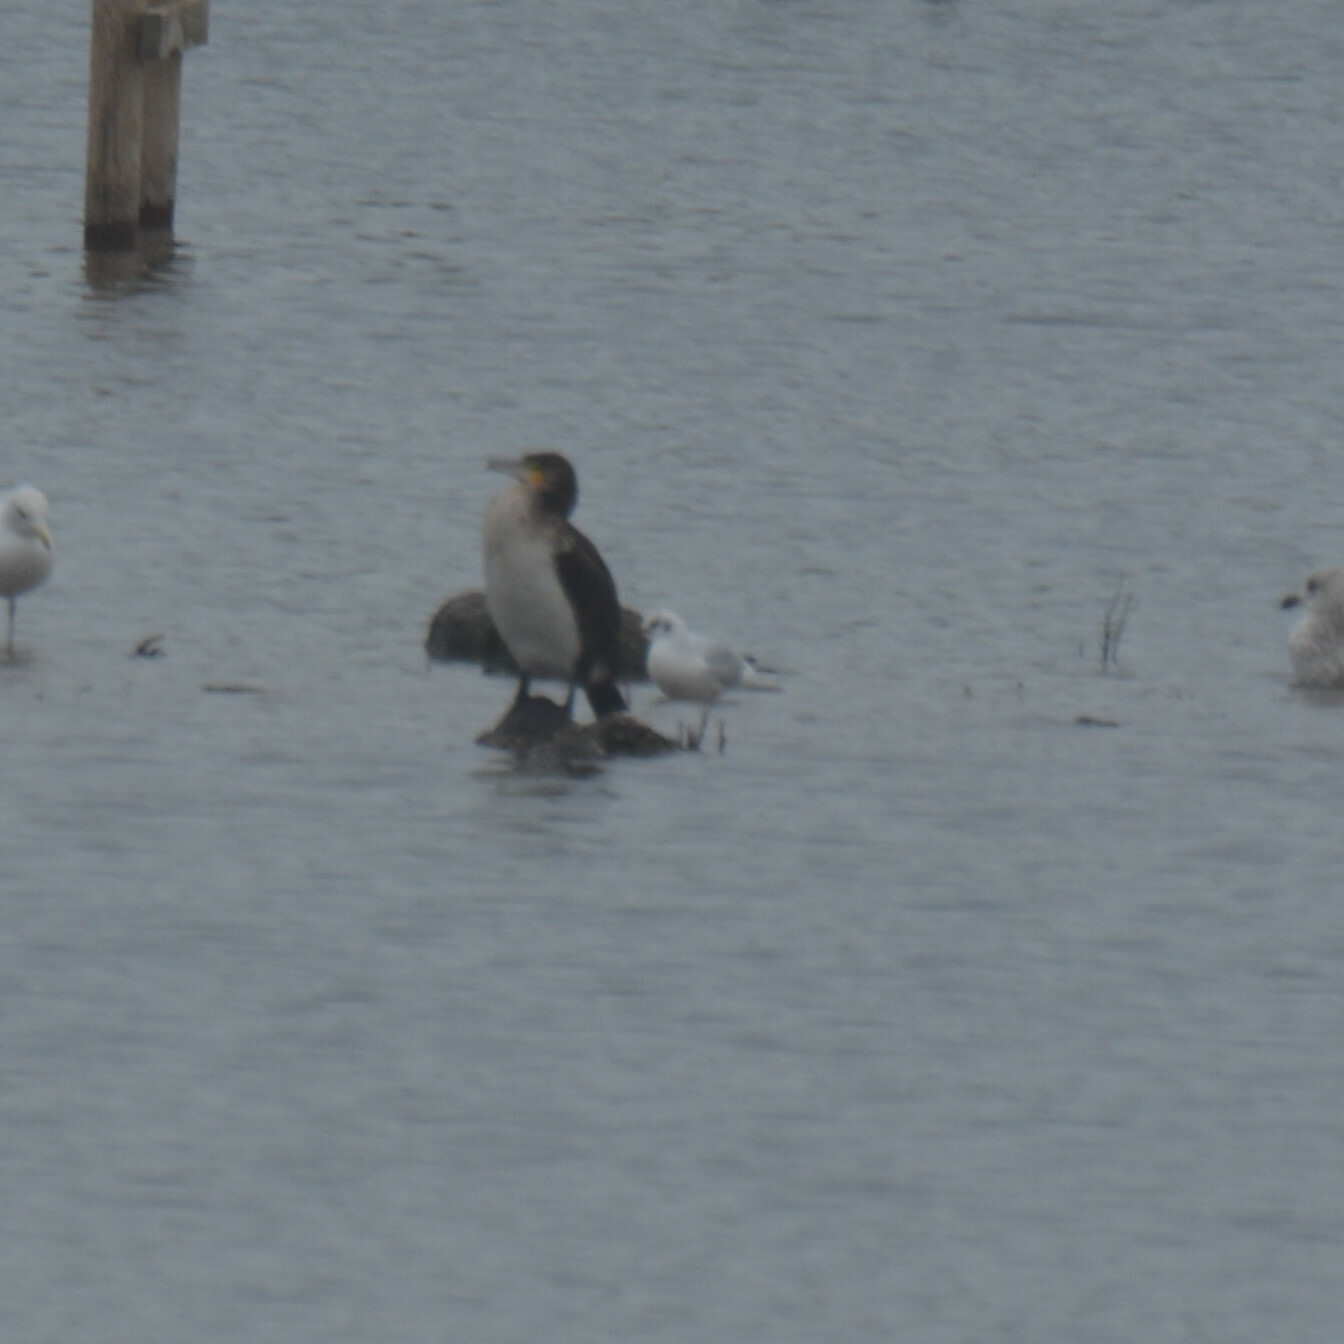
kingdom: Animalia
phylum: Chordata
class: Aves
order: Suliformes
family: Phalacrocoracidae
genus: Phalacrocorax
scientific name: Phalacrocorax carbo
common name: Great cormorant
